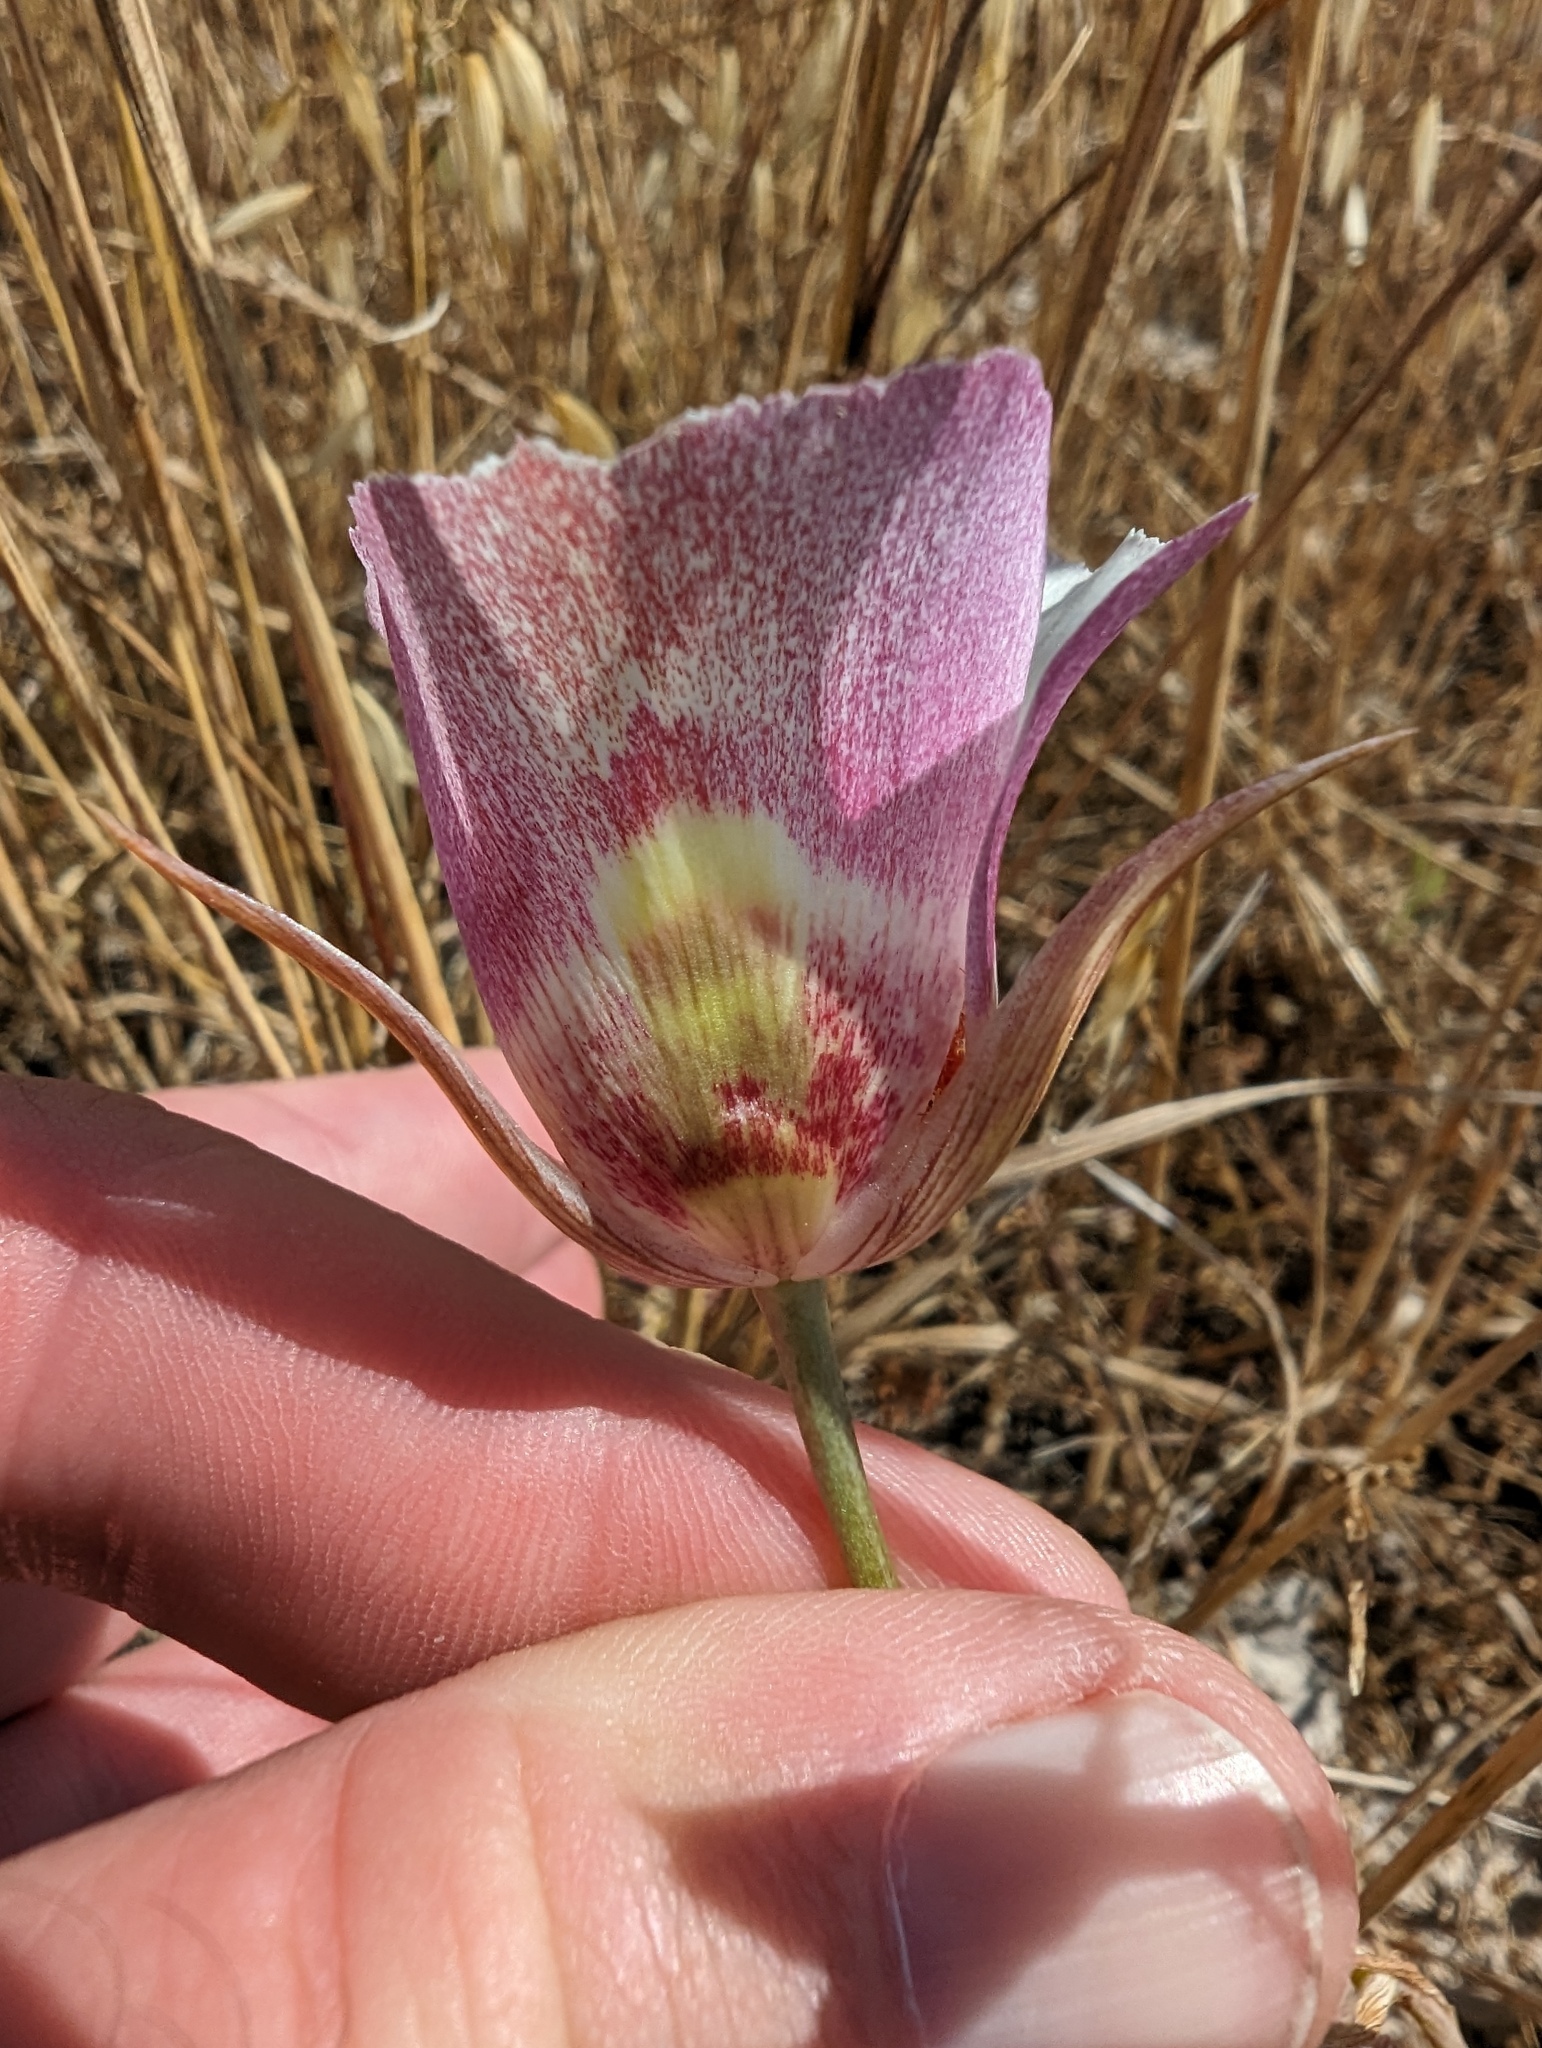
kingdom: Plantae
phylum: Tracheophyta
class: Liliopsida
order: Liliales
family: Liliaceae
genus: Calochortus
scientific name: Calochortus argillosus
